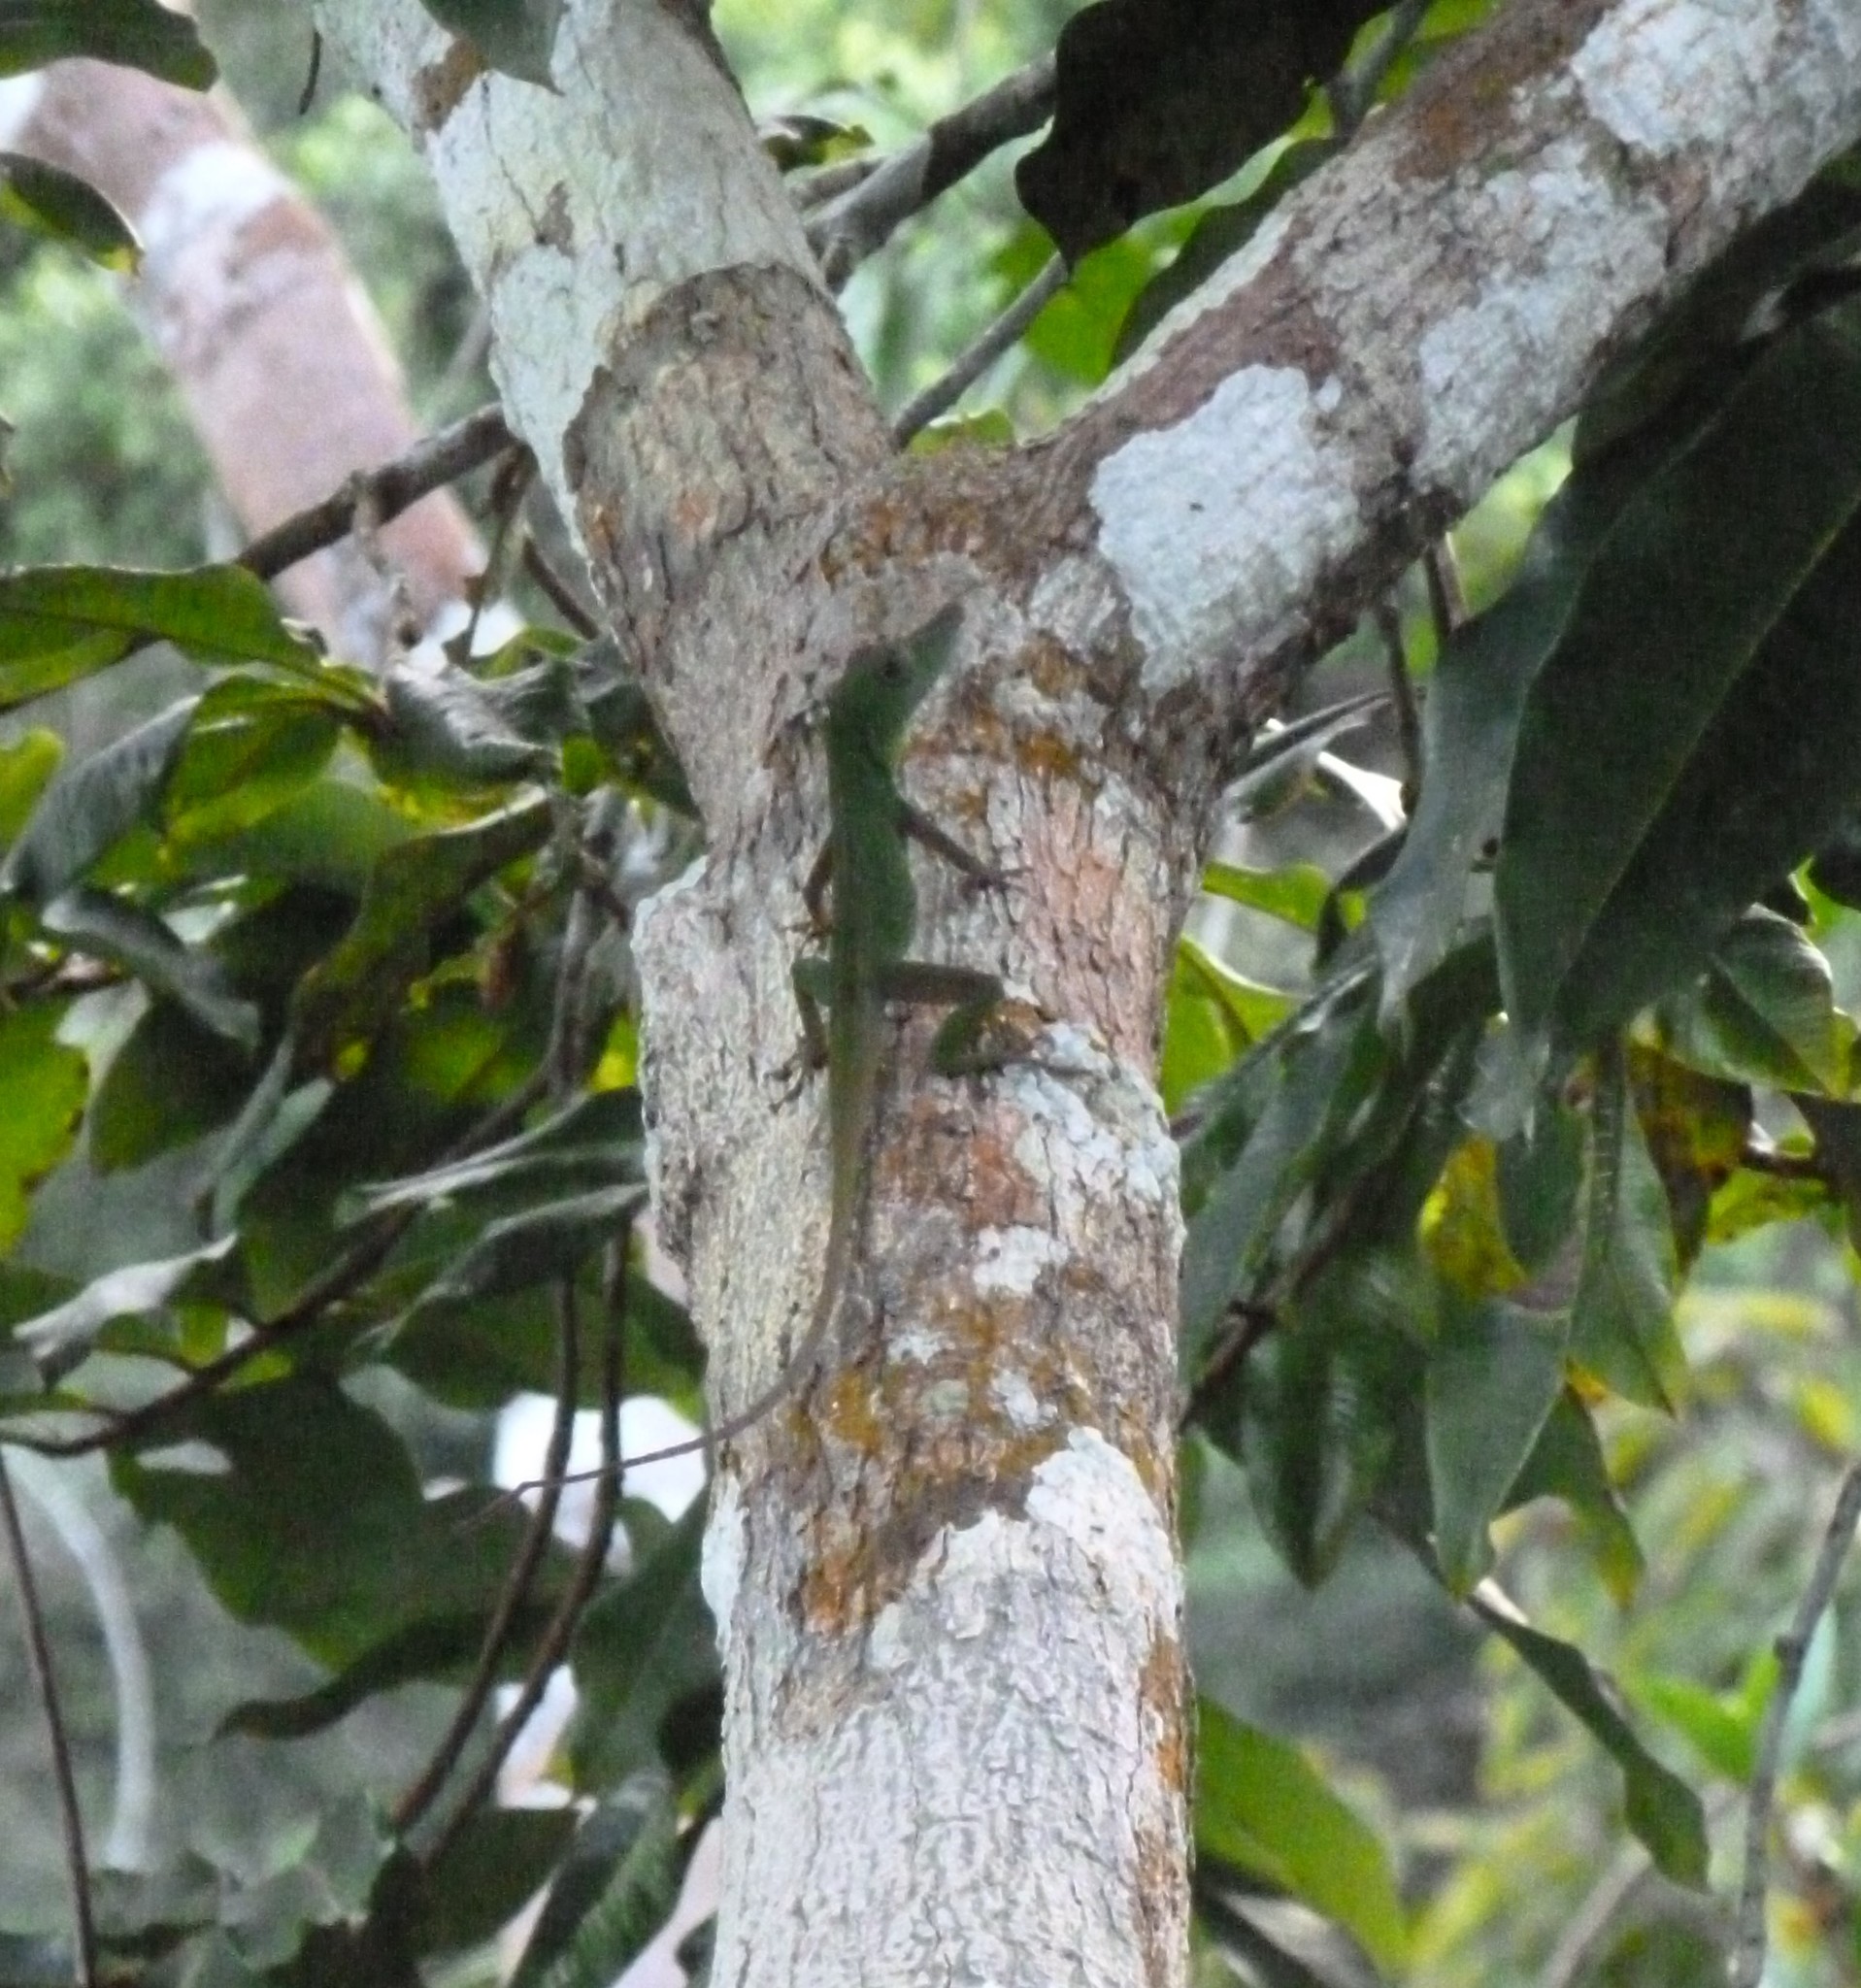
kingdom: Animalia
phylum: Chordata
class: Squamata
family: Dactyloidae
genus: Anolis
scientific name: Anolis punctatus
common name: Amazon green anole
